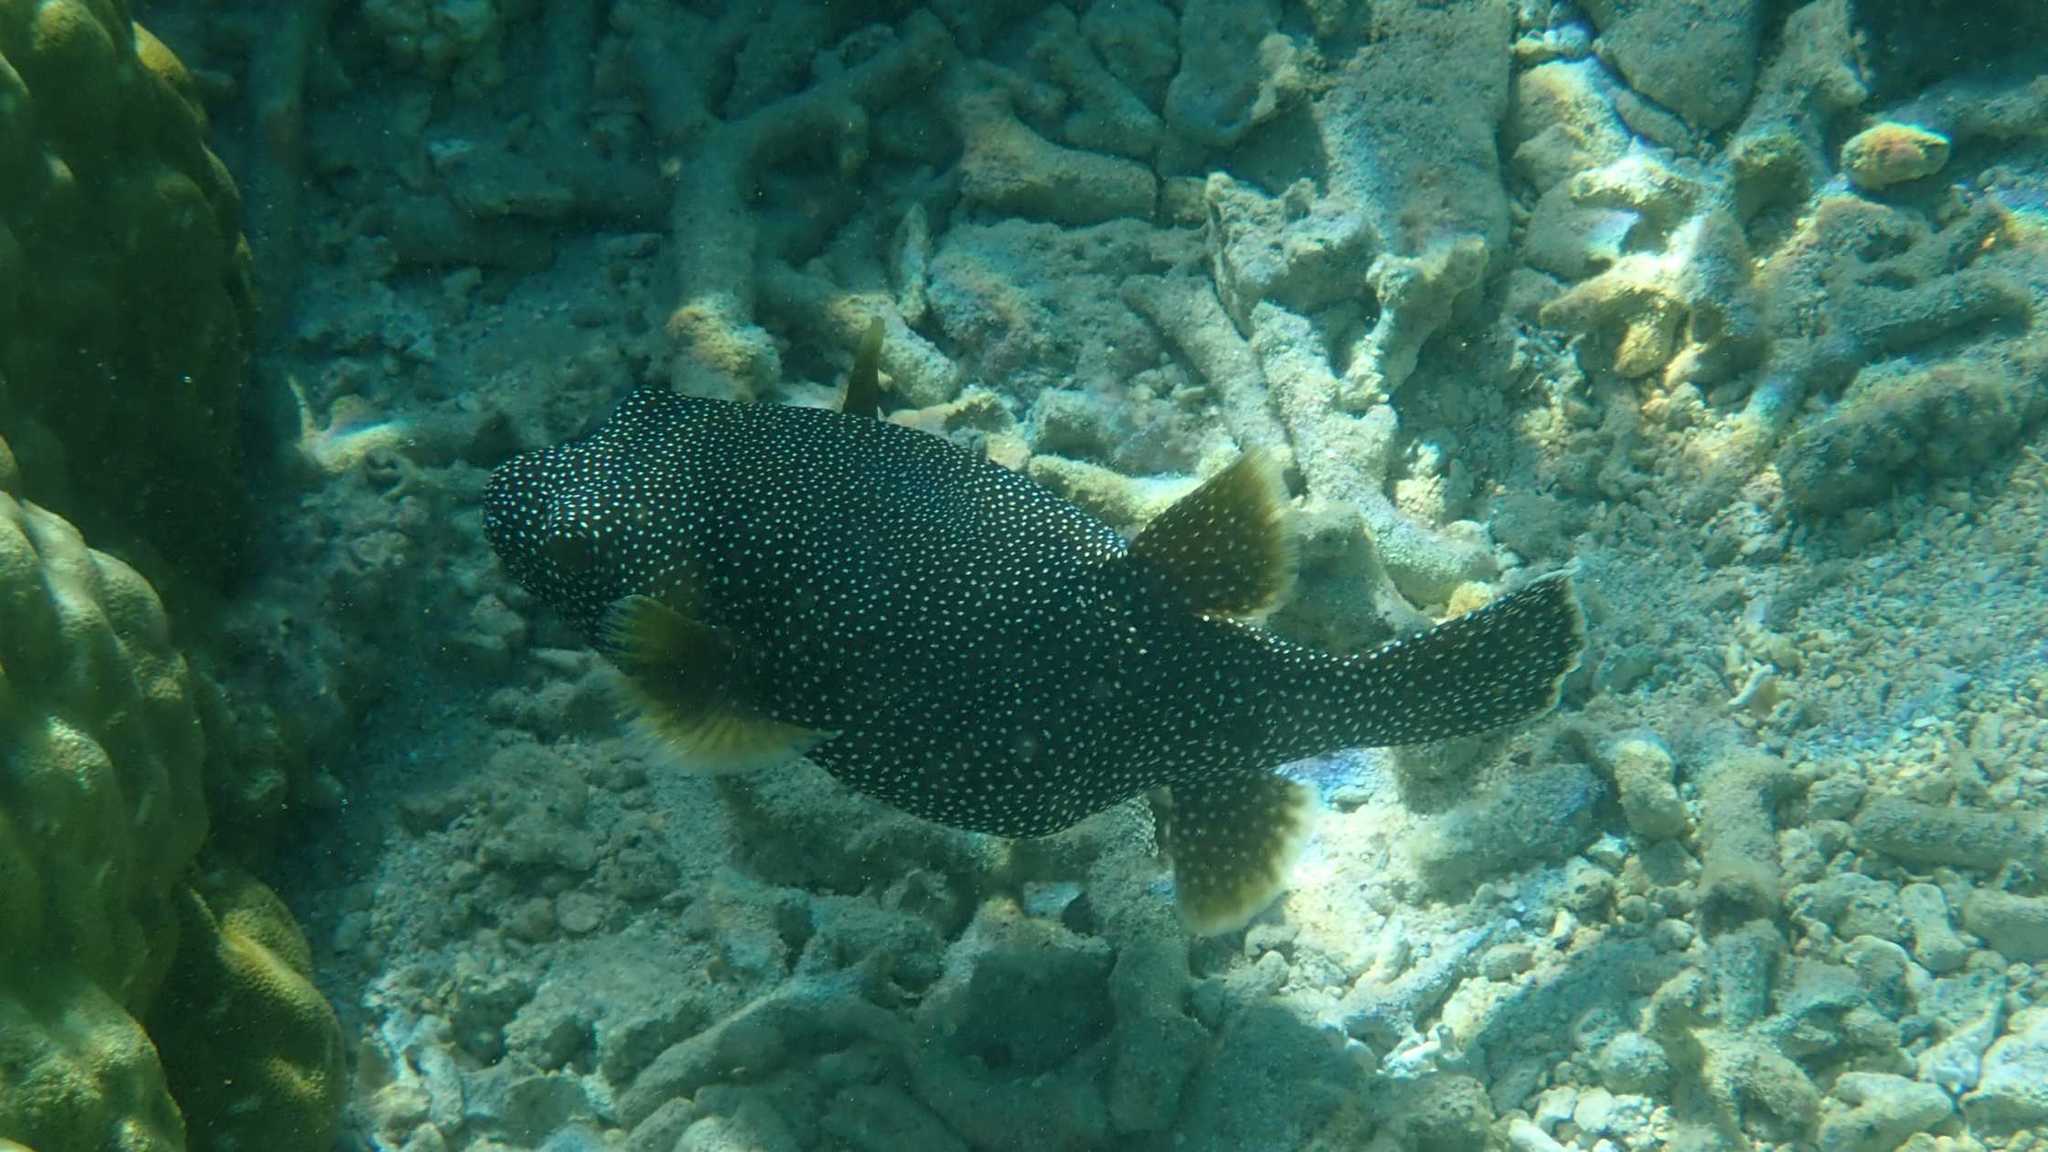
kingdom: Animalia
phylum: Chordata
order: Tetraodontiformes
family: Tetraodontidae
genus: Arothron
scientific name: Arothron meleagris
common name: Guinea-fowl pufferfish
